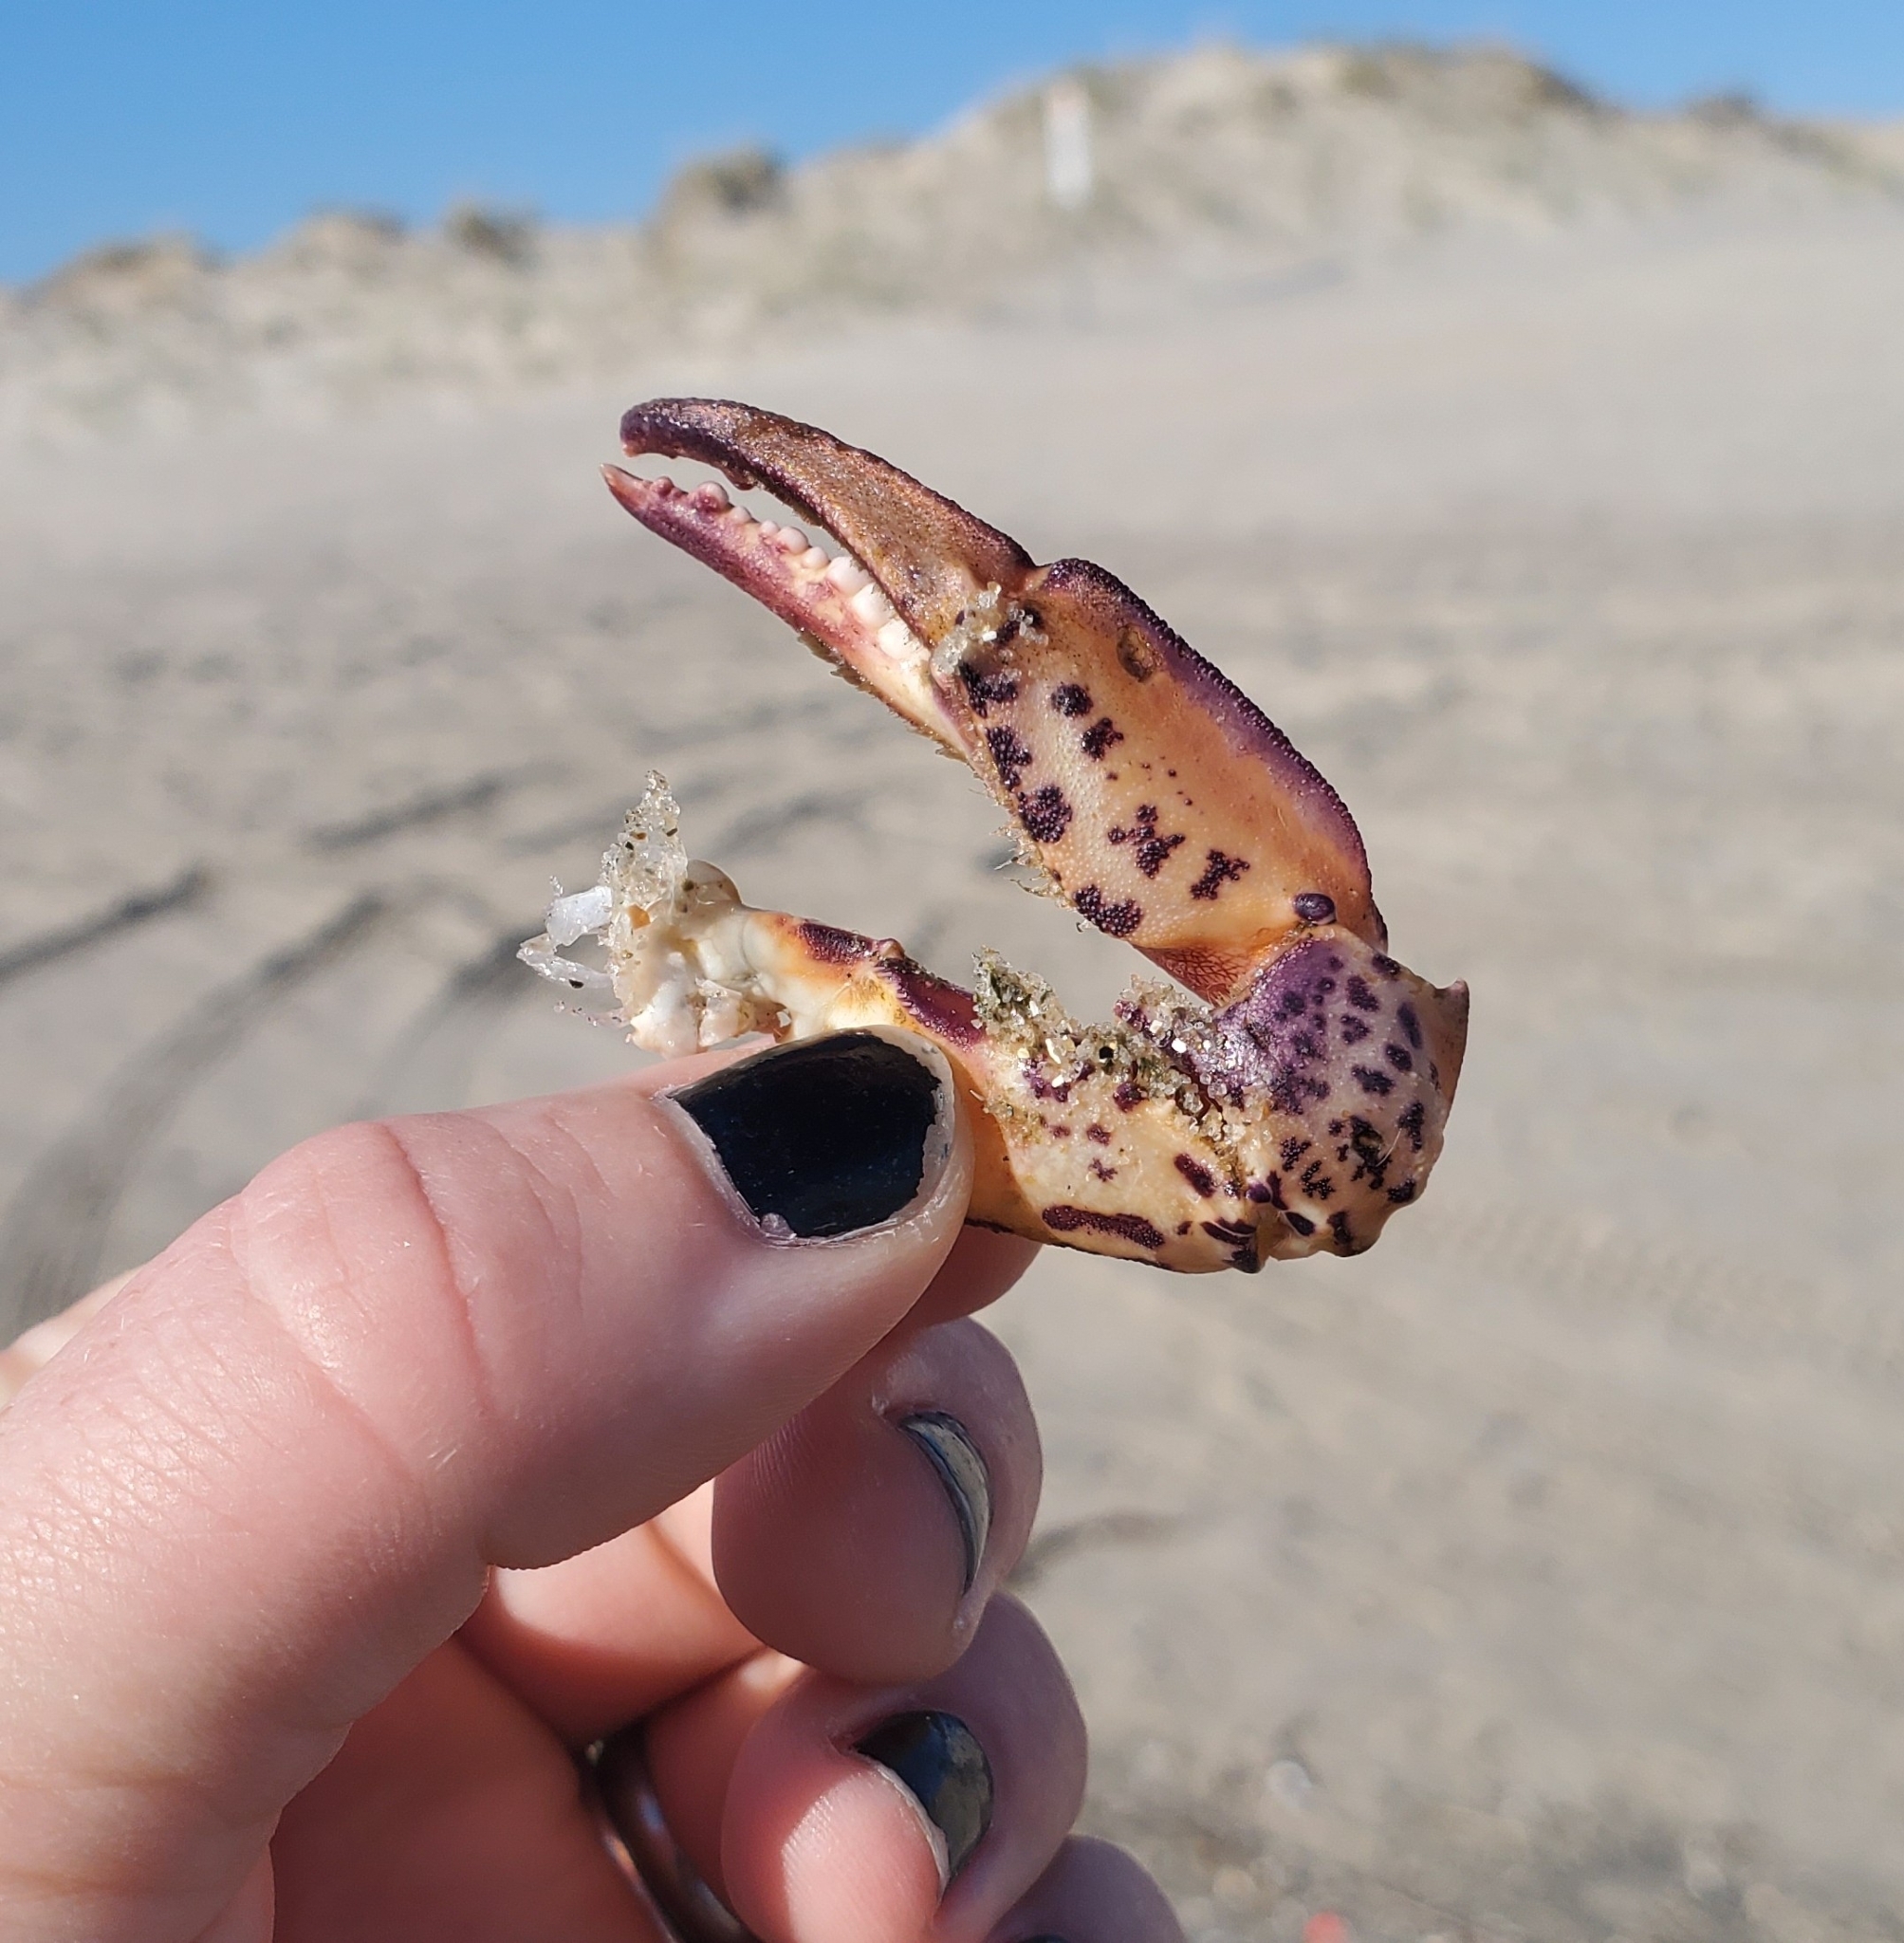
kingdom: Animalia
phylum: Arthropoda
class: Malacostraca
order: Decapoda
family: Ovalipidae
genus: Ovalipes
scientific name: Ovalipes ocellatus
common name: Lady crab
